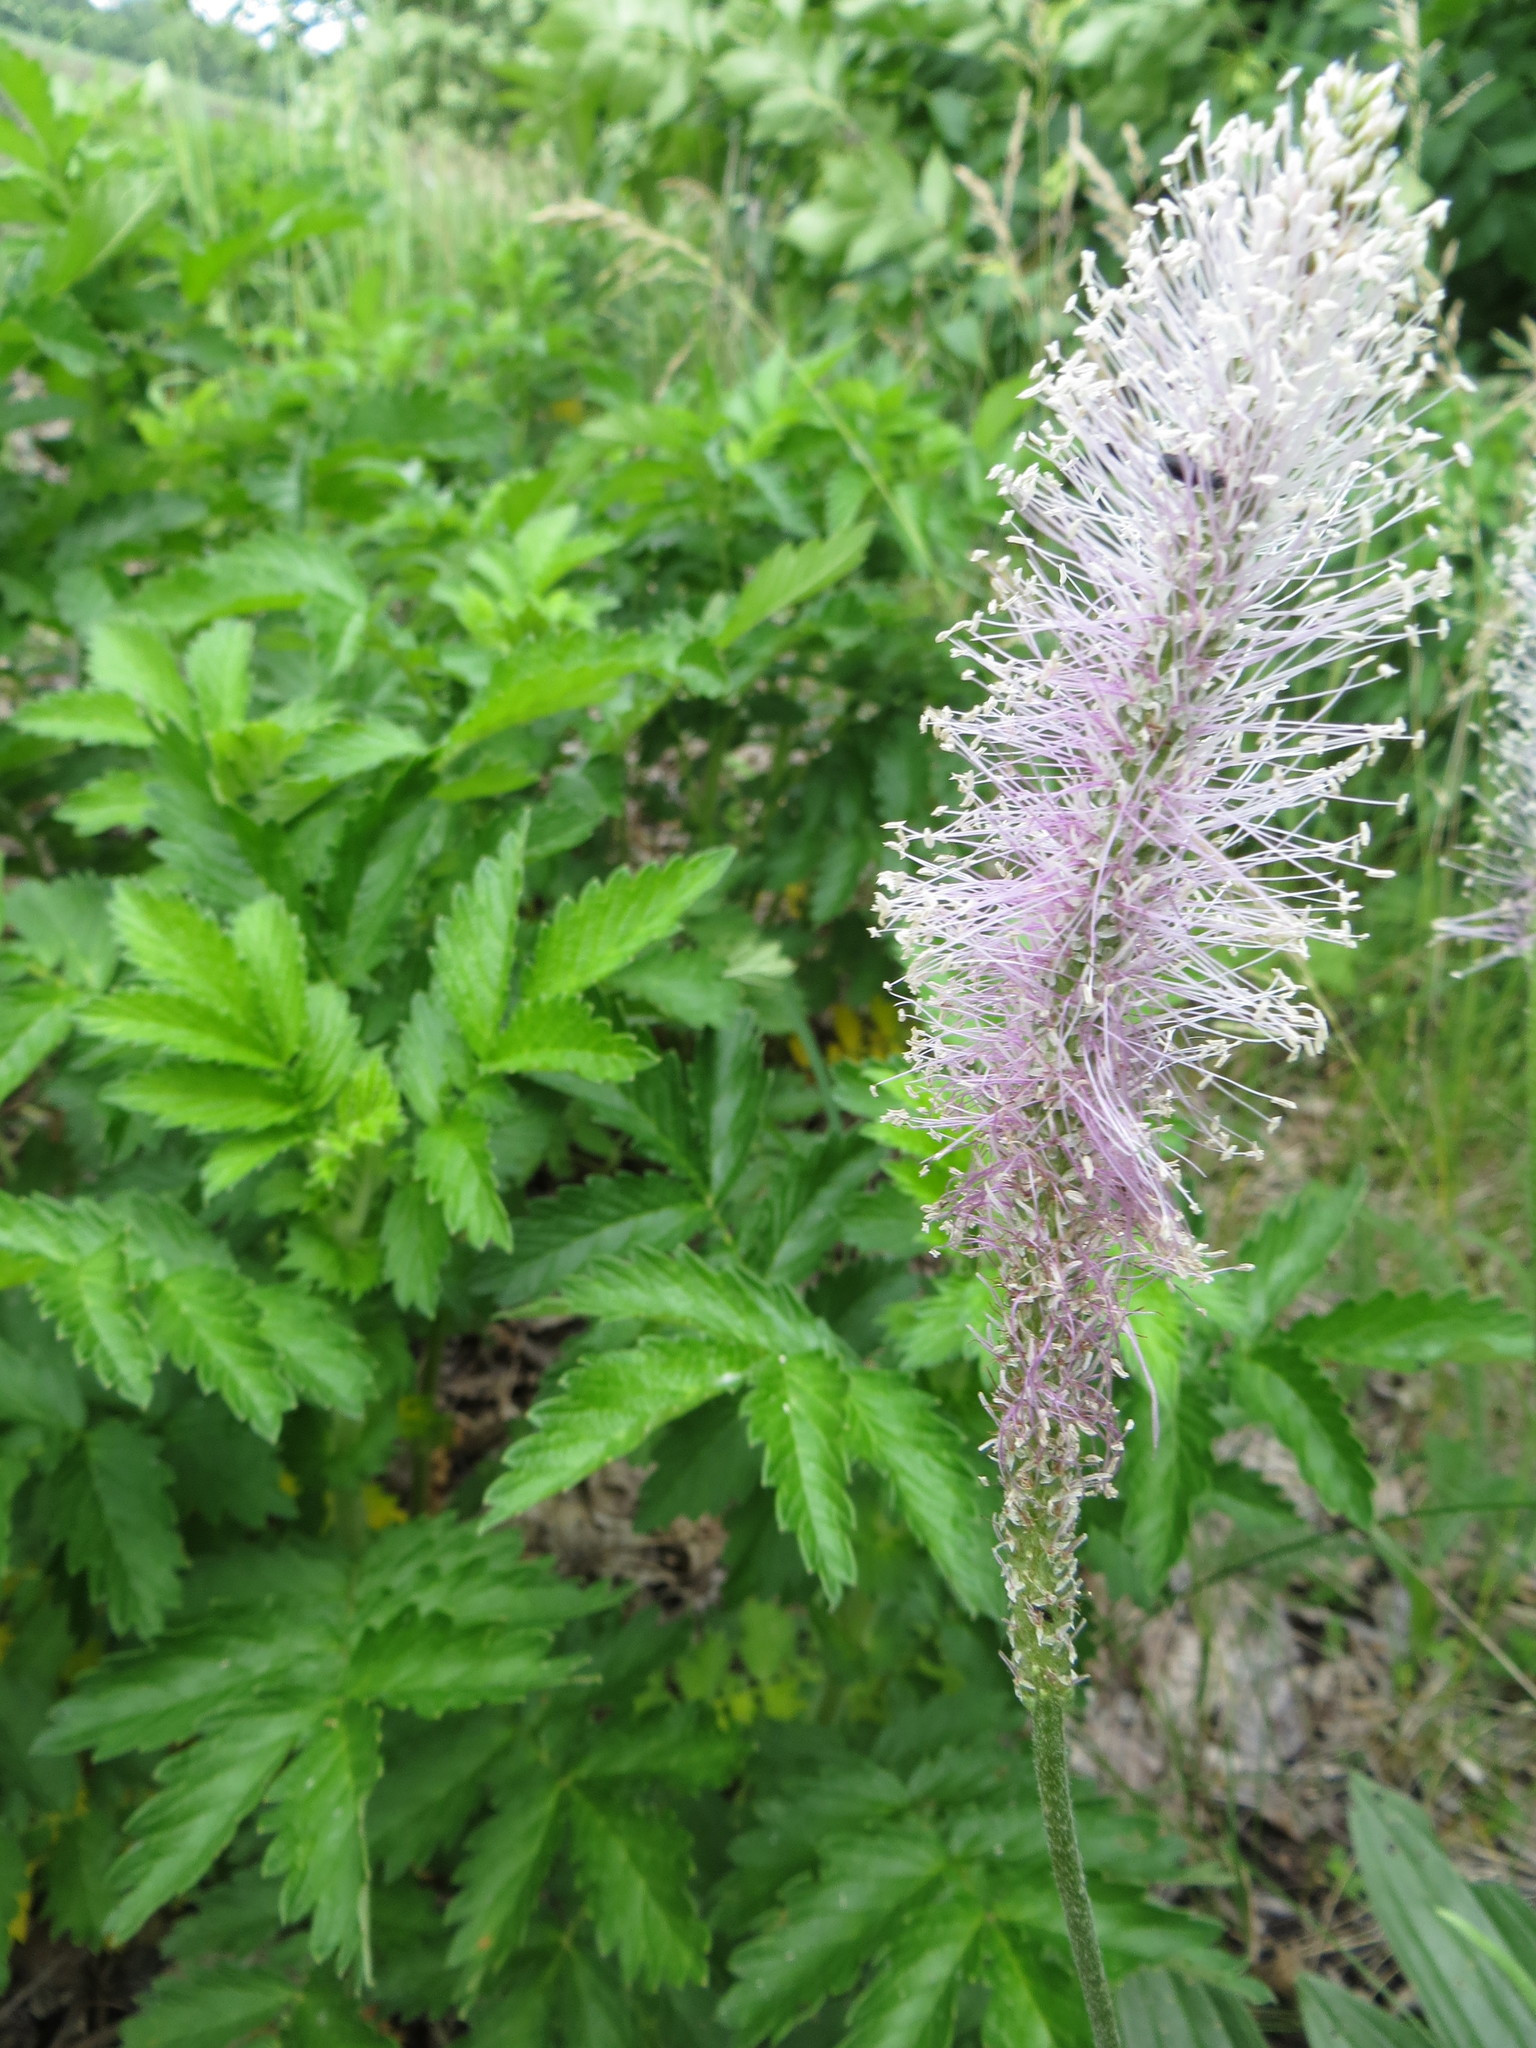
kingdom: Plantae
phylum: Tracheophyta
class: Magnoliopsida
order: Lamiales
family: Plantaginaceae
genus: Plantago
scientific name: Plantago urvillei
